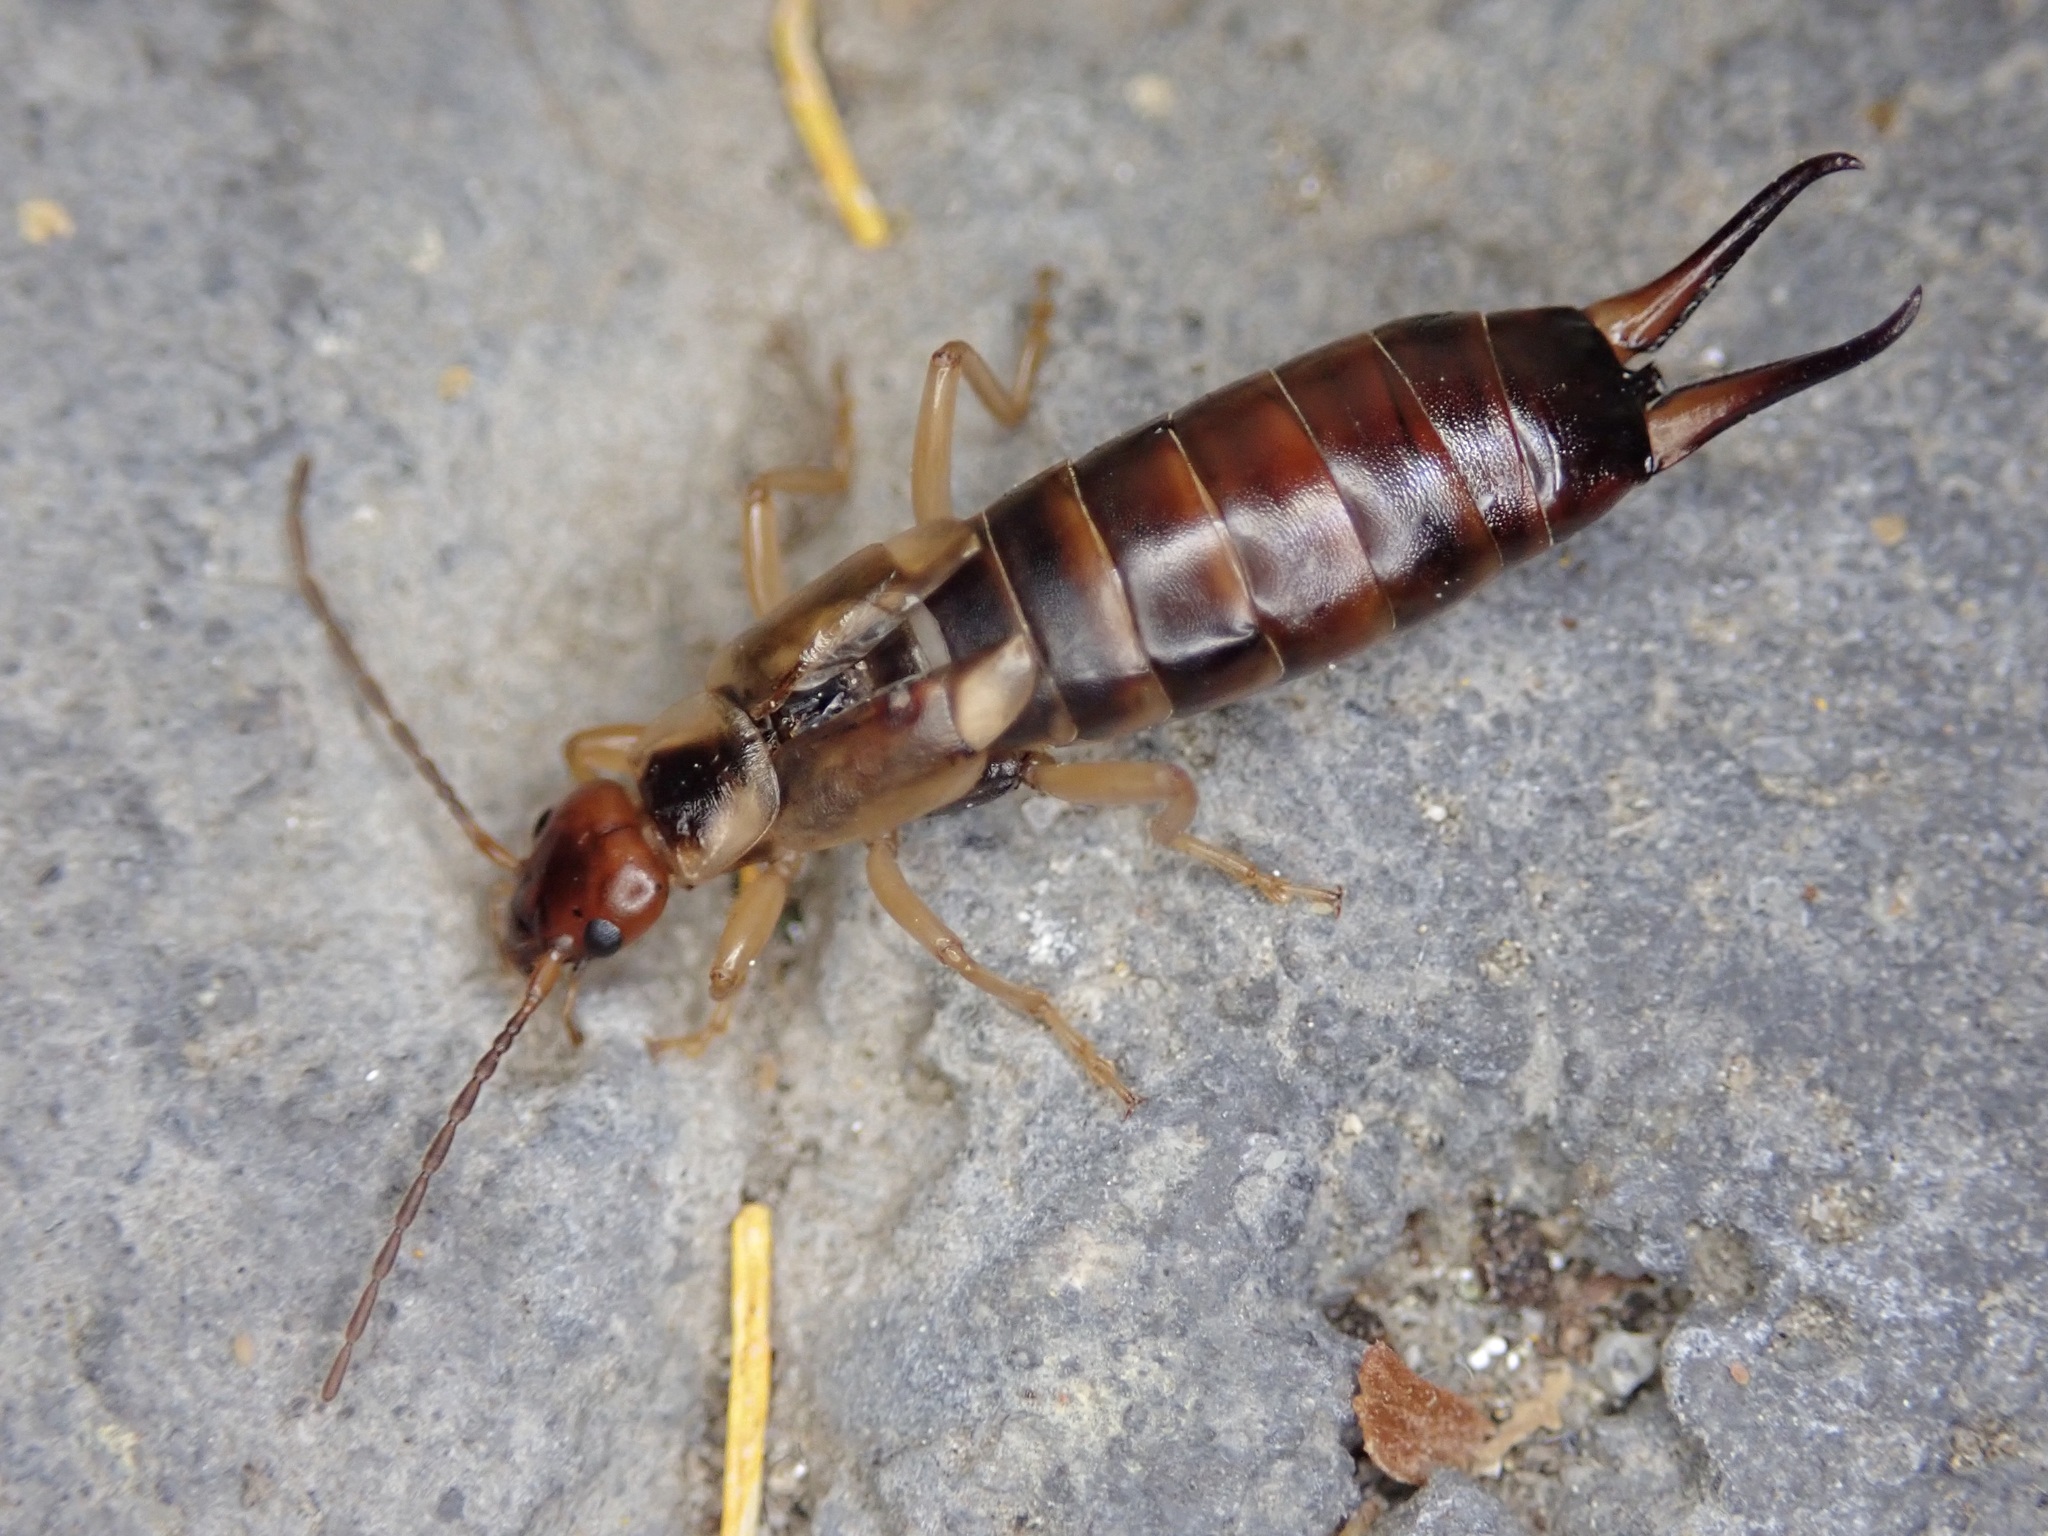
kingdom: Animalia
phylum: Arthropoda
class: Insecta
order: Dermaptera
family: Forficulidae
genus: Forficula
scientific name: Forficula
